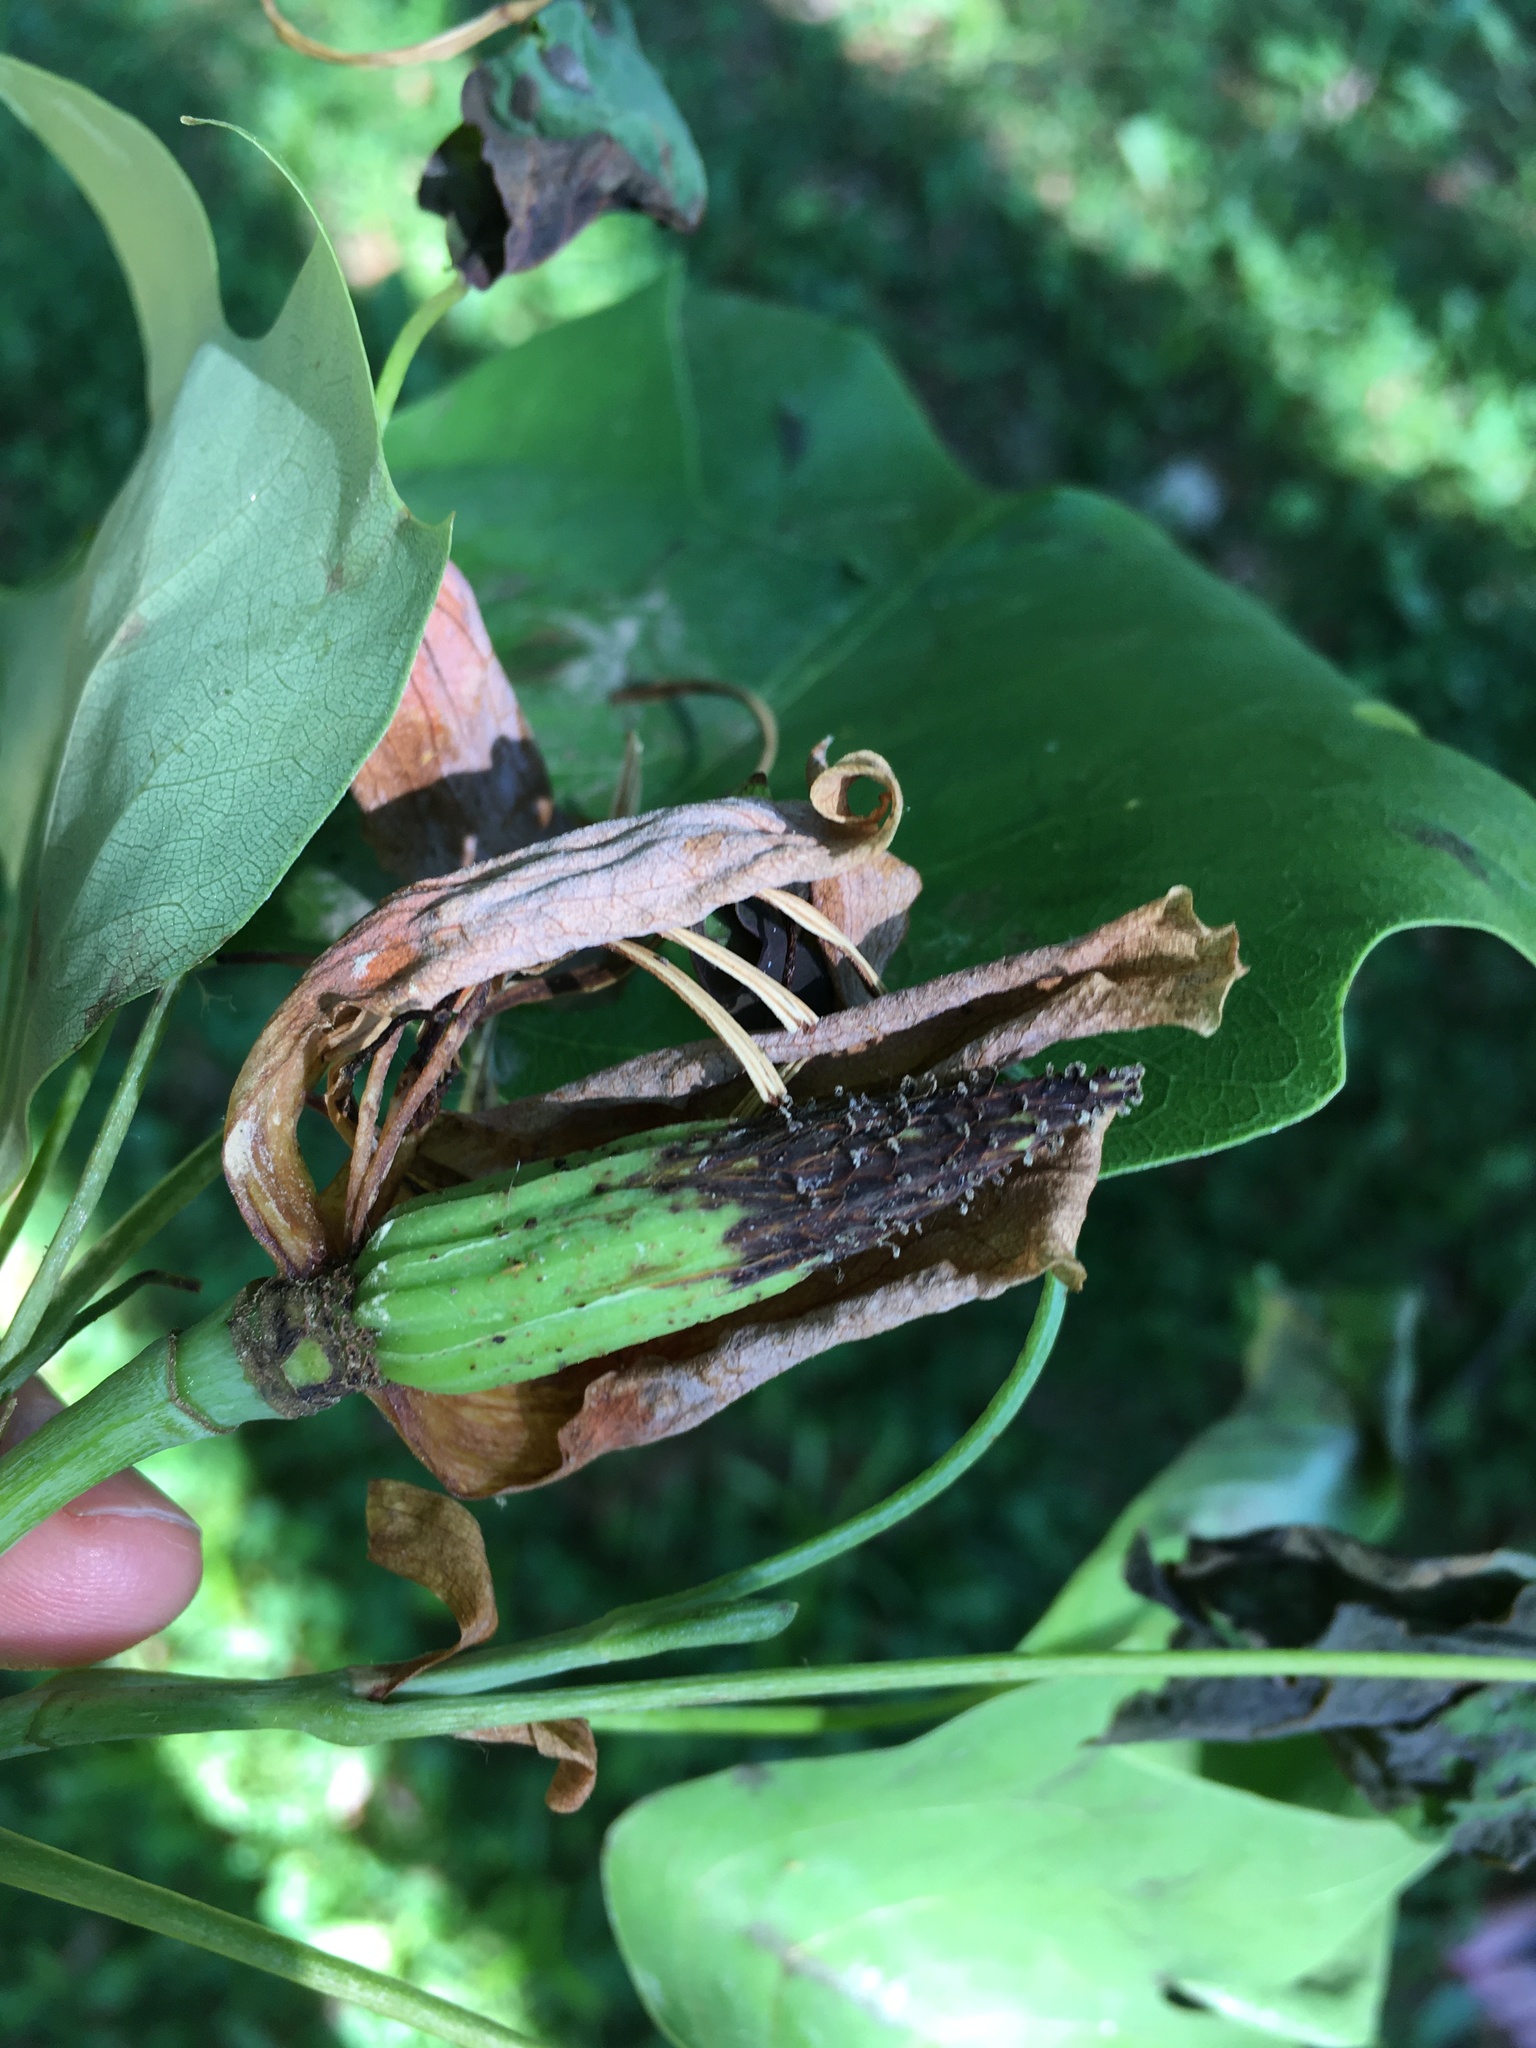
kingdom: Plantae
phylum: Tracheophyta
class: Magnoliopsida
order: Magnoliales
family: Magnoliaceae
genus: Liriodendron
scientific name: Liriodendron tulipifera
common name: Tulip tree
